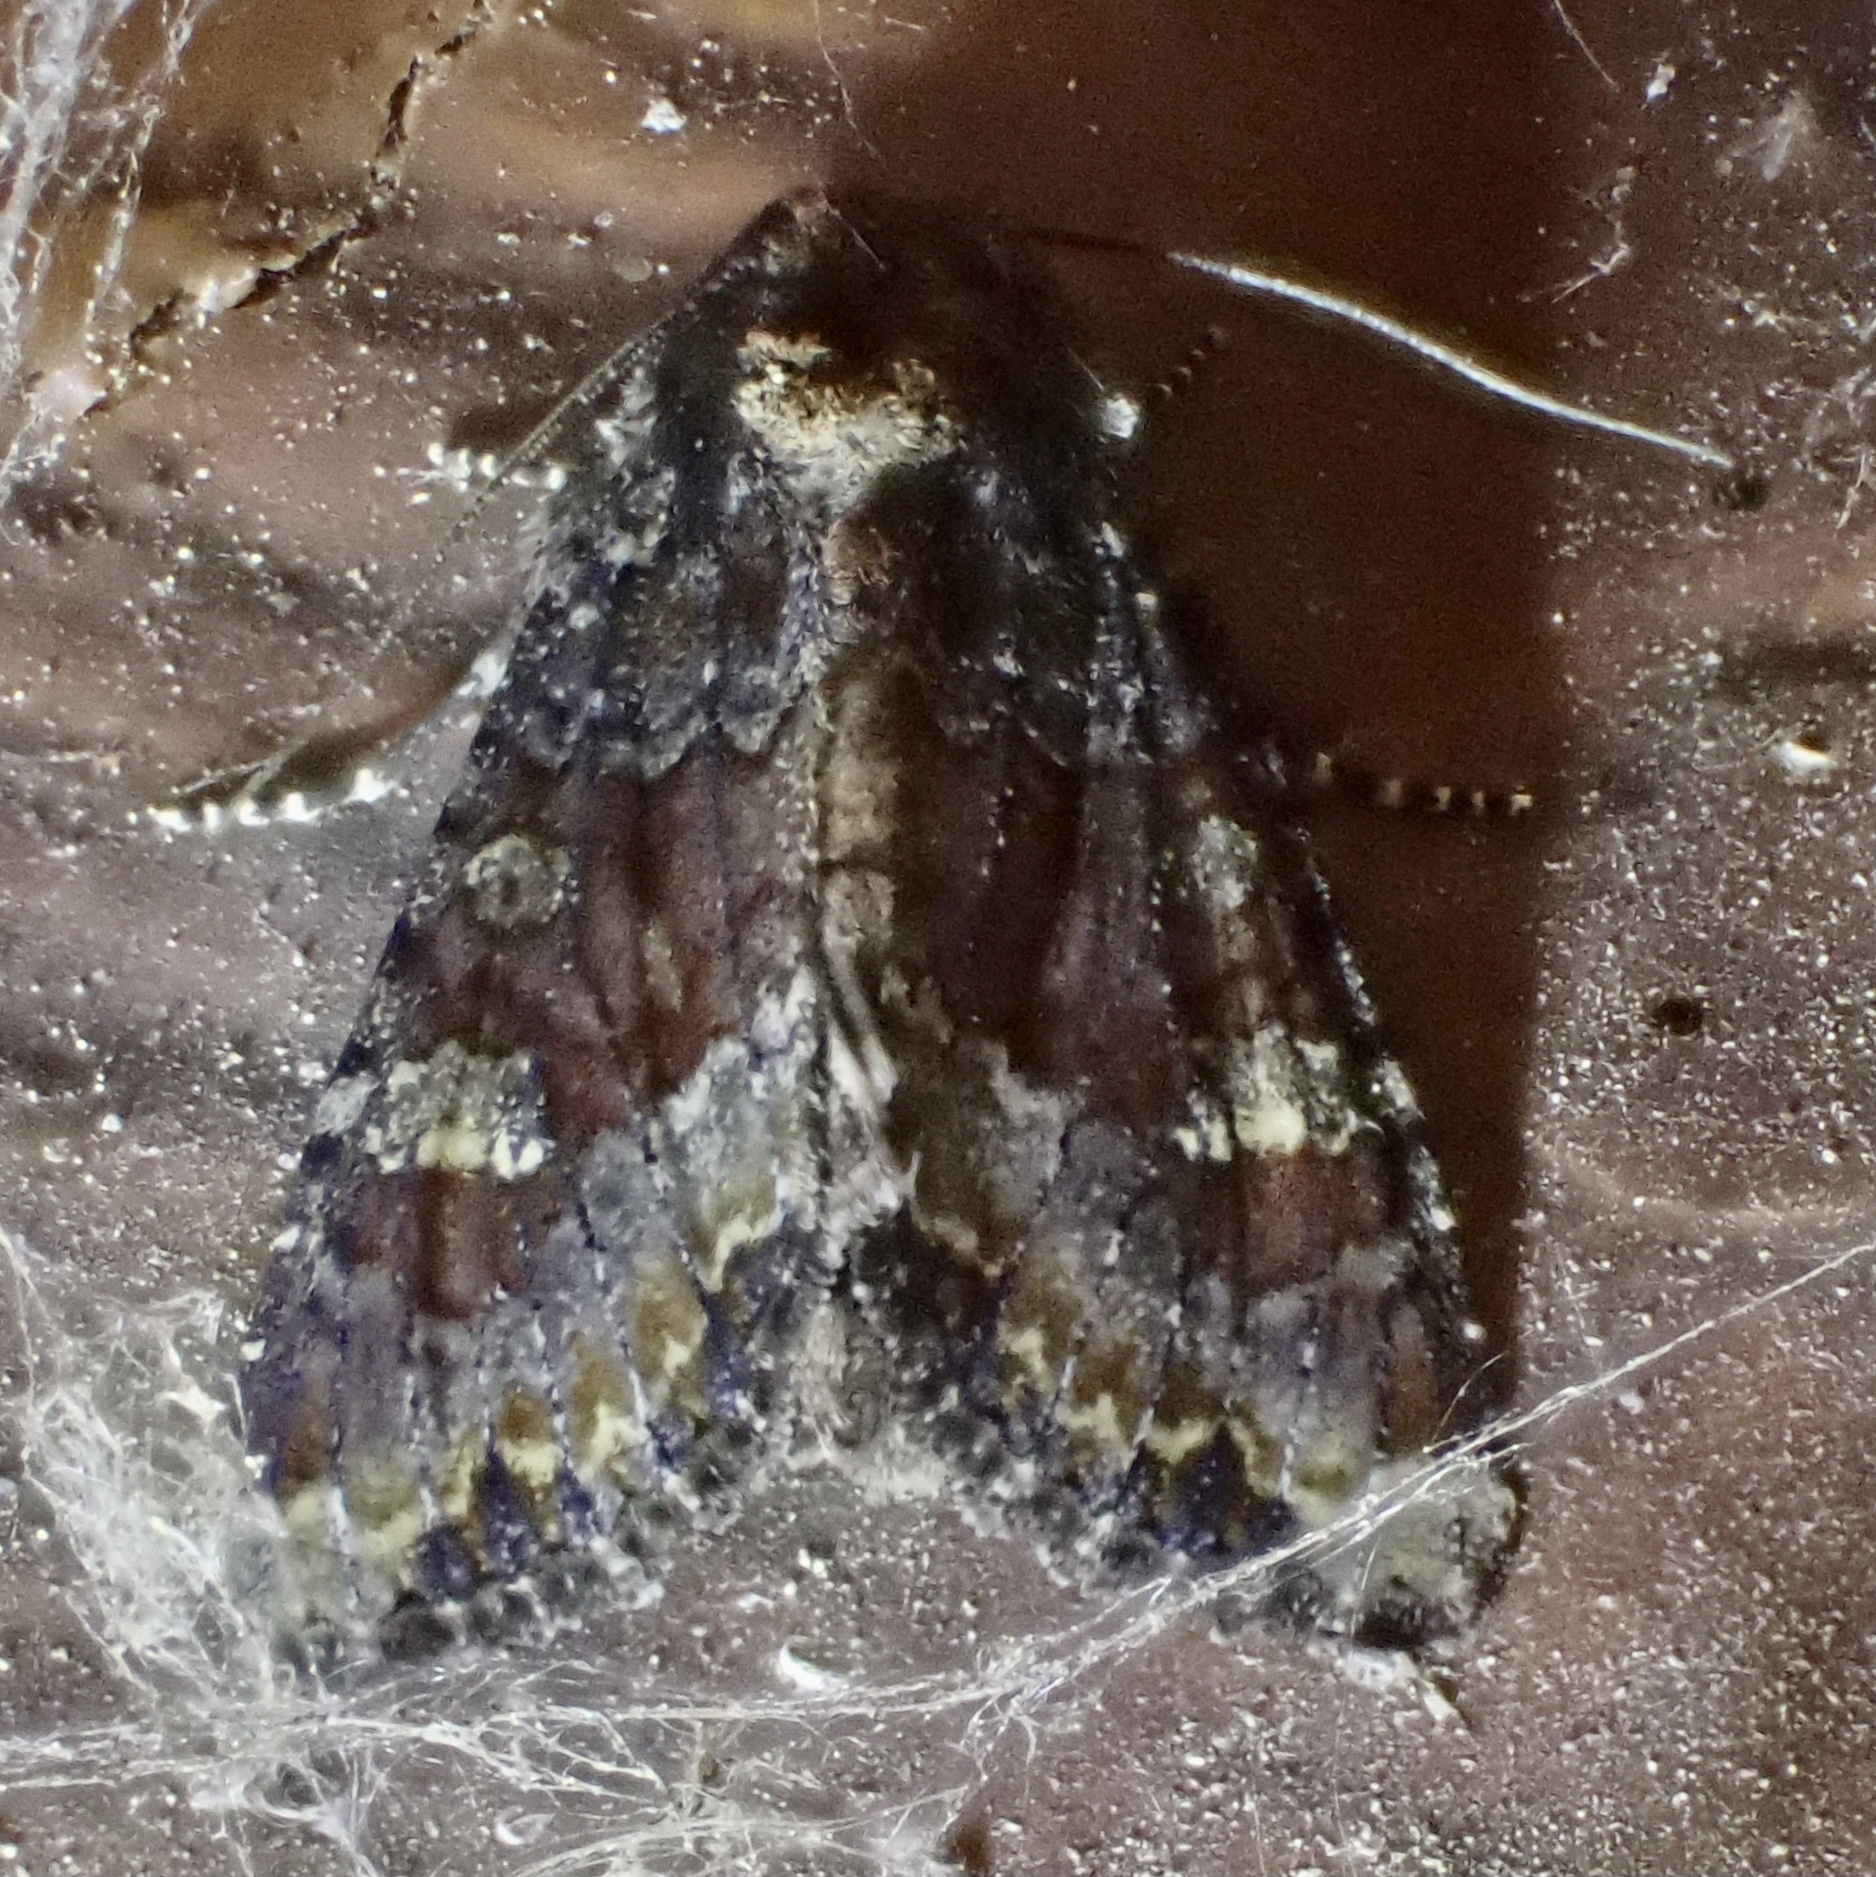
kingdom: Animalia
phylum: Arthropoda
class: Insecta
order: Lepidoptera
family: Noctuidae
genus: Apamea
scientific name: Apamea amputatrix
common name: Yellow-headed cutworm moth
